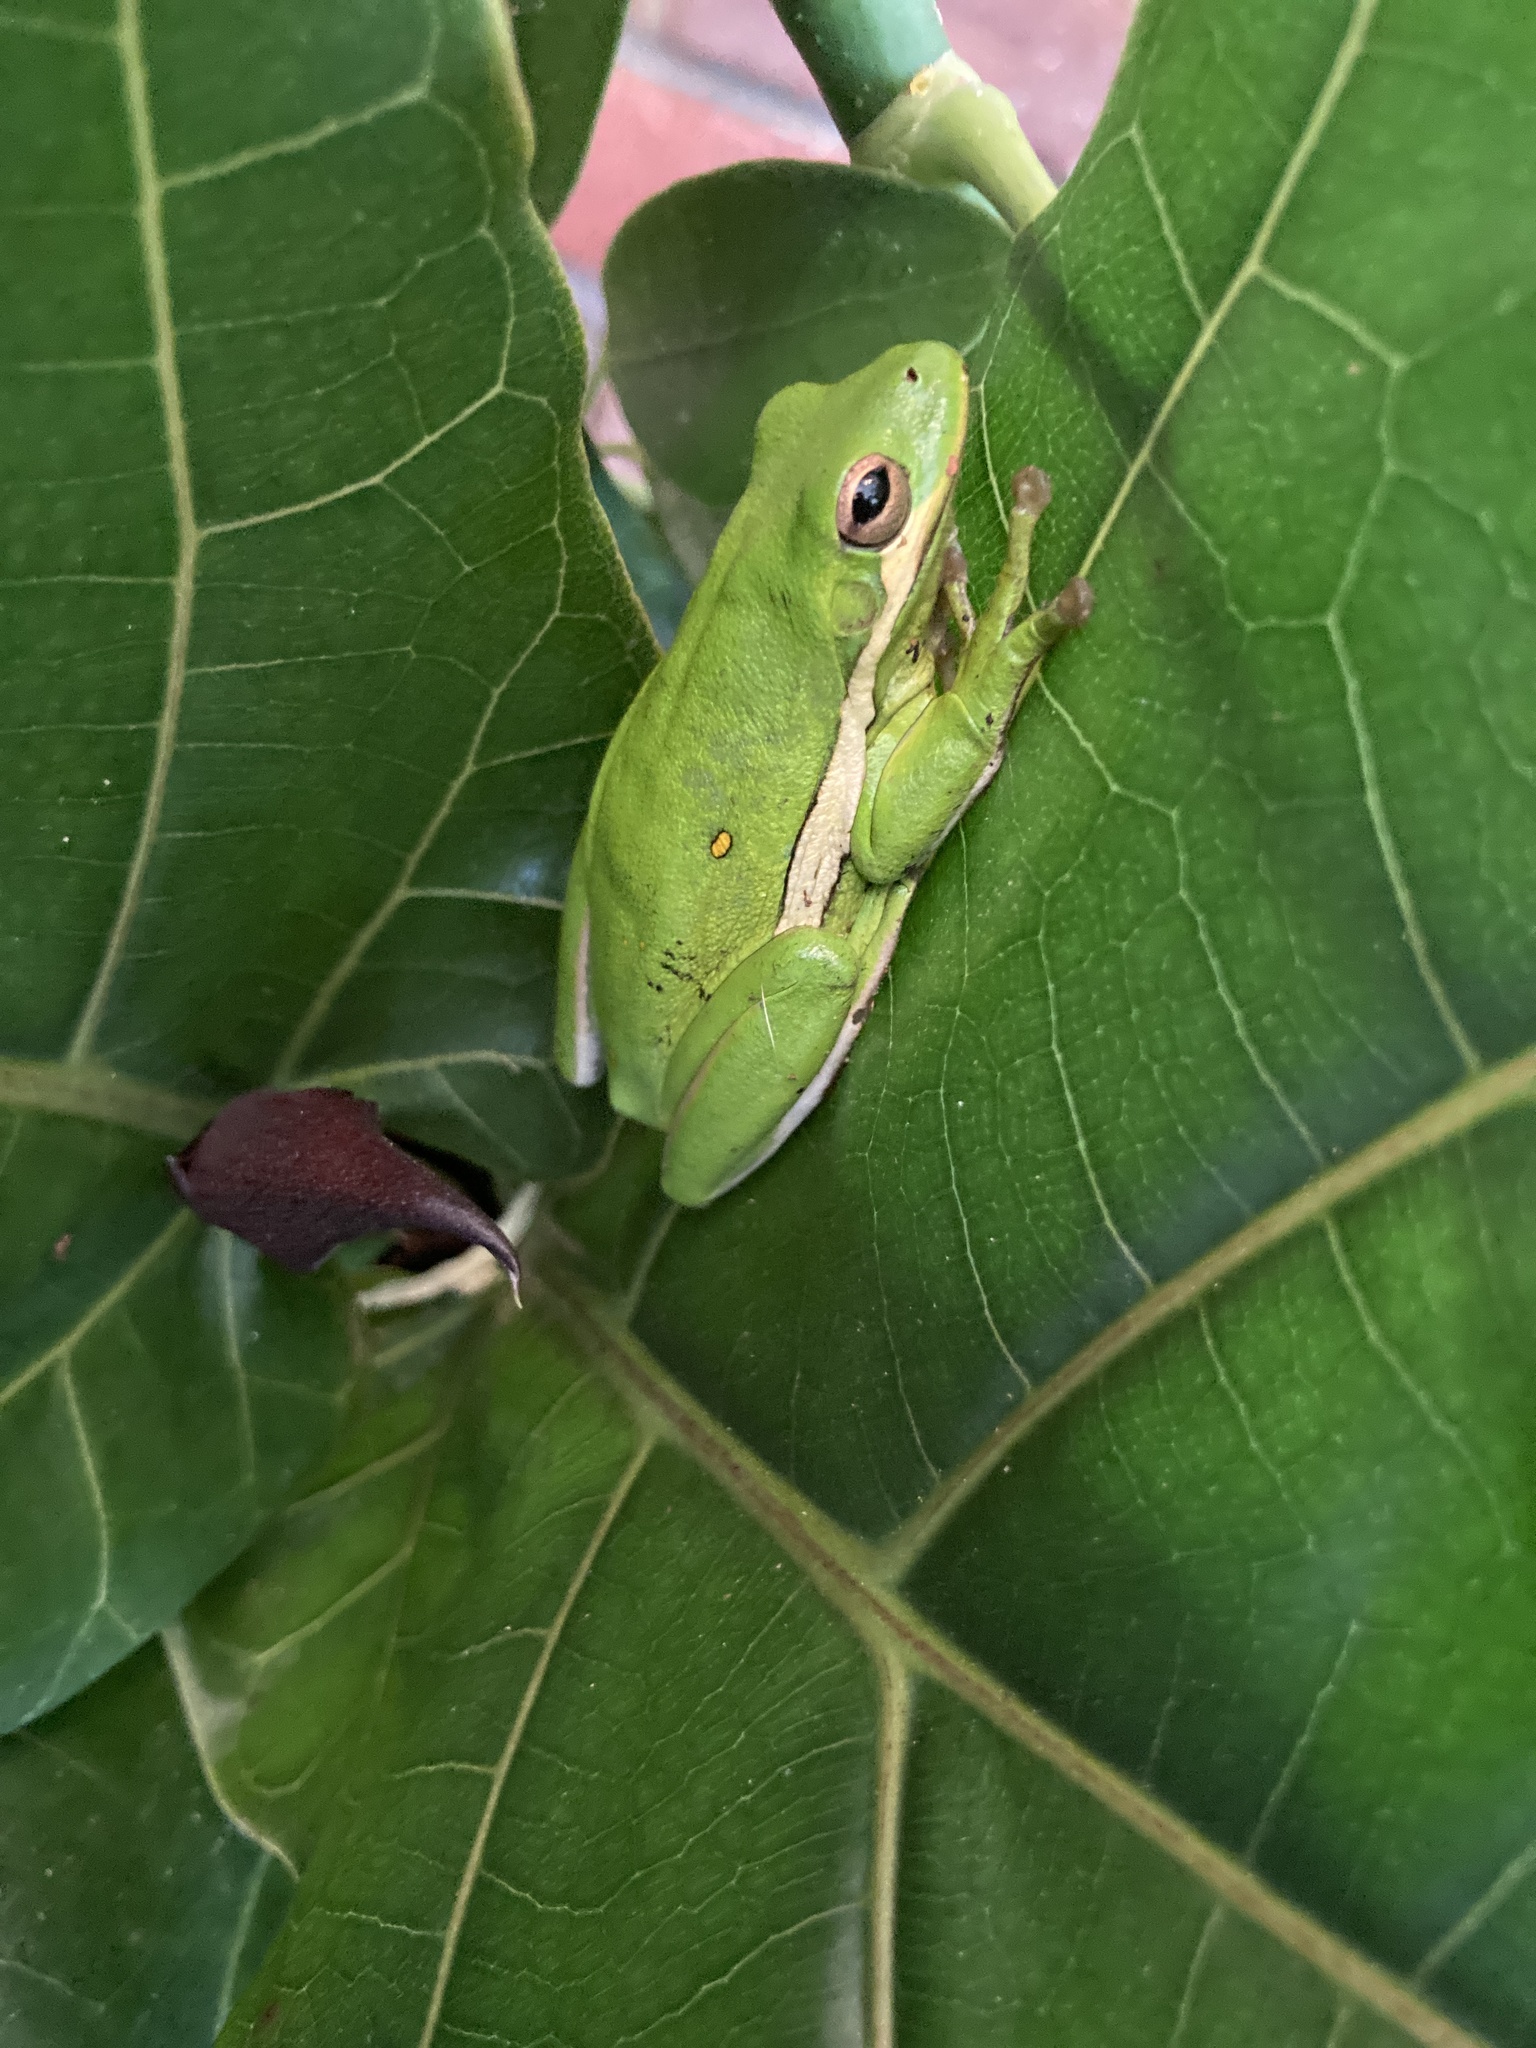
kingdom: Animalia
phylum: Chordata
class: Amphibia
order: Anura
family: Hylidae
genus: Dryophytes
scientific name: Dryophytes cinereus
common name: Green treefrog
